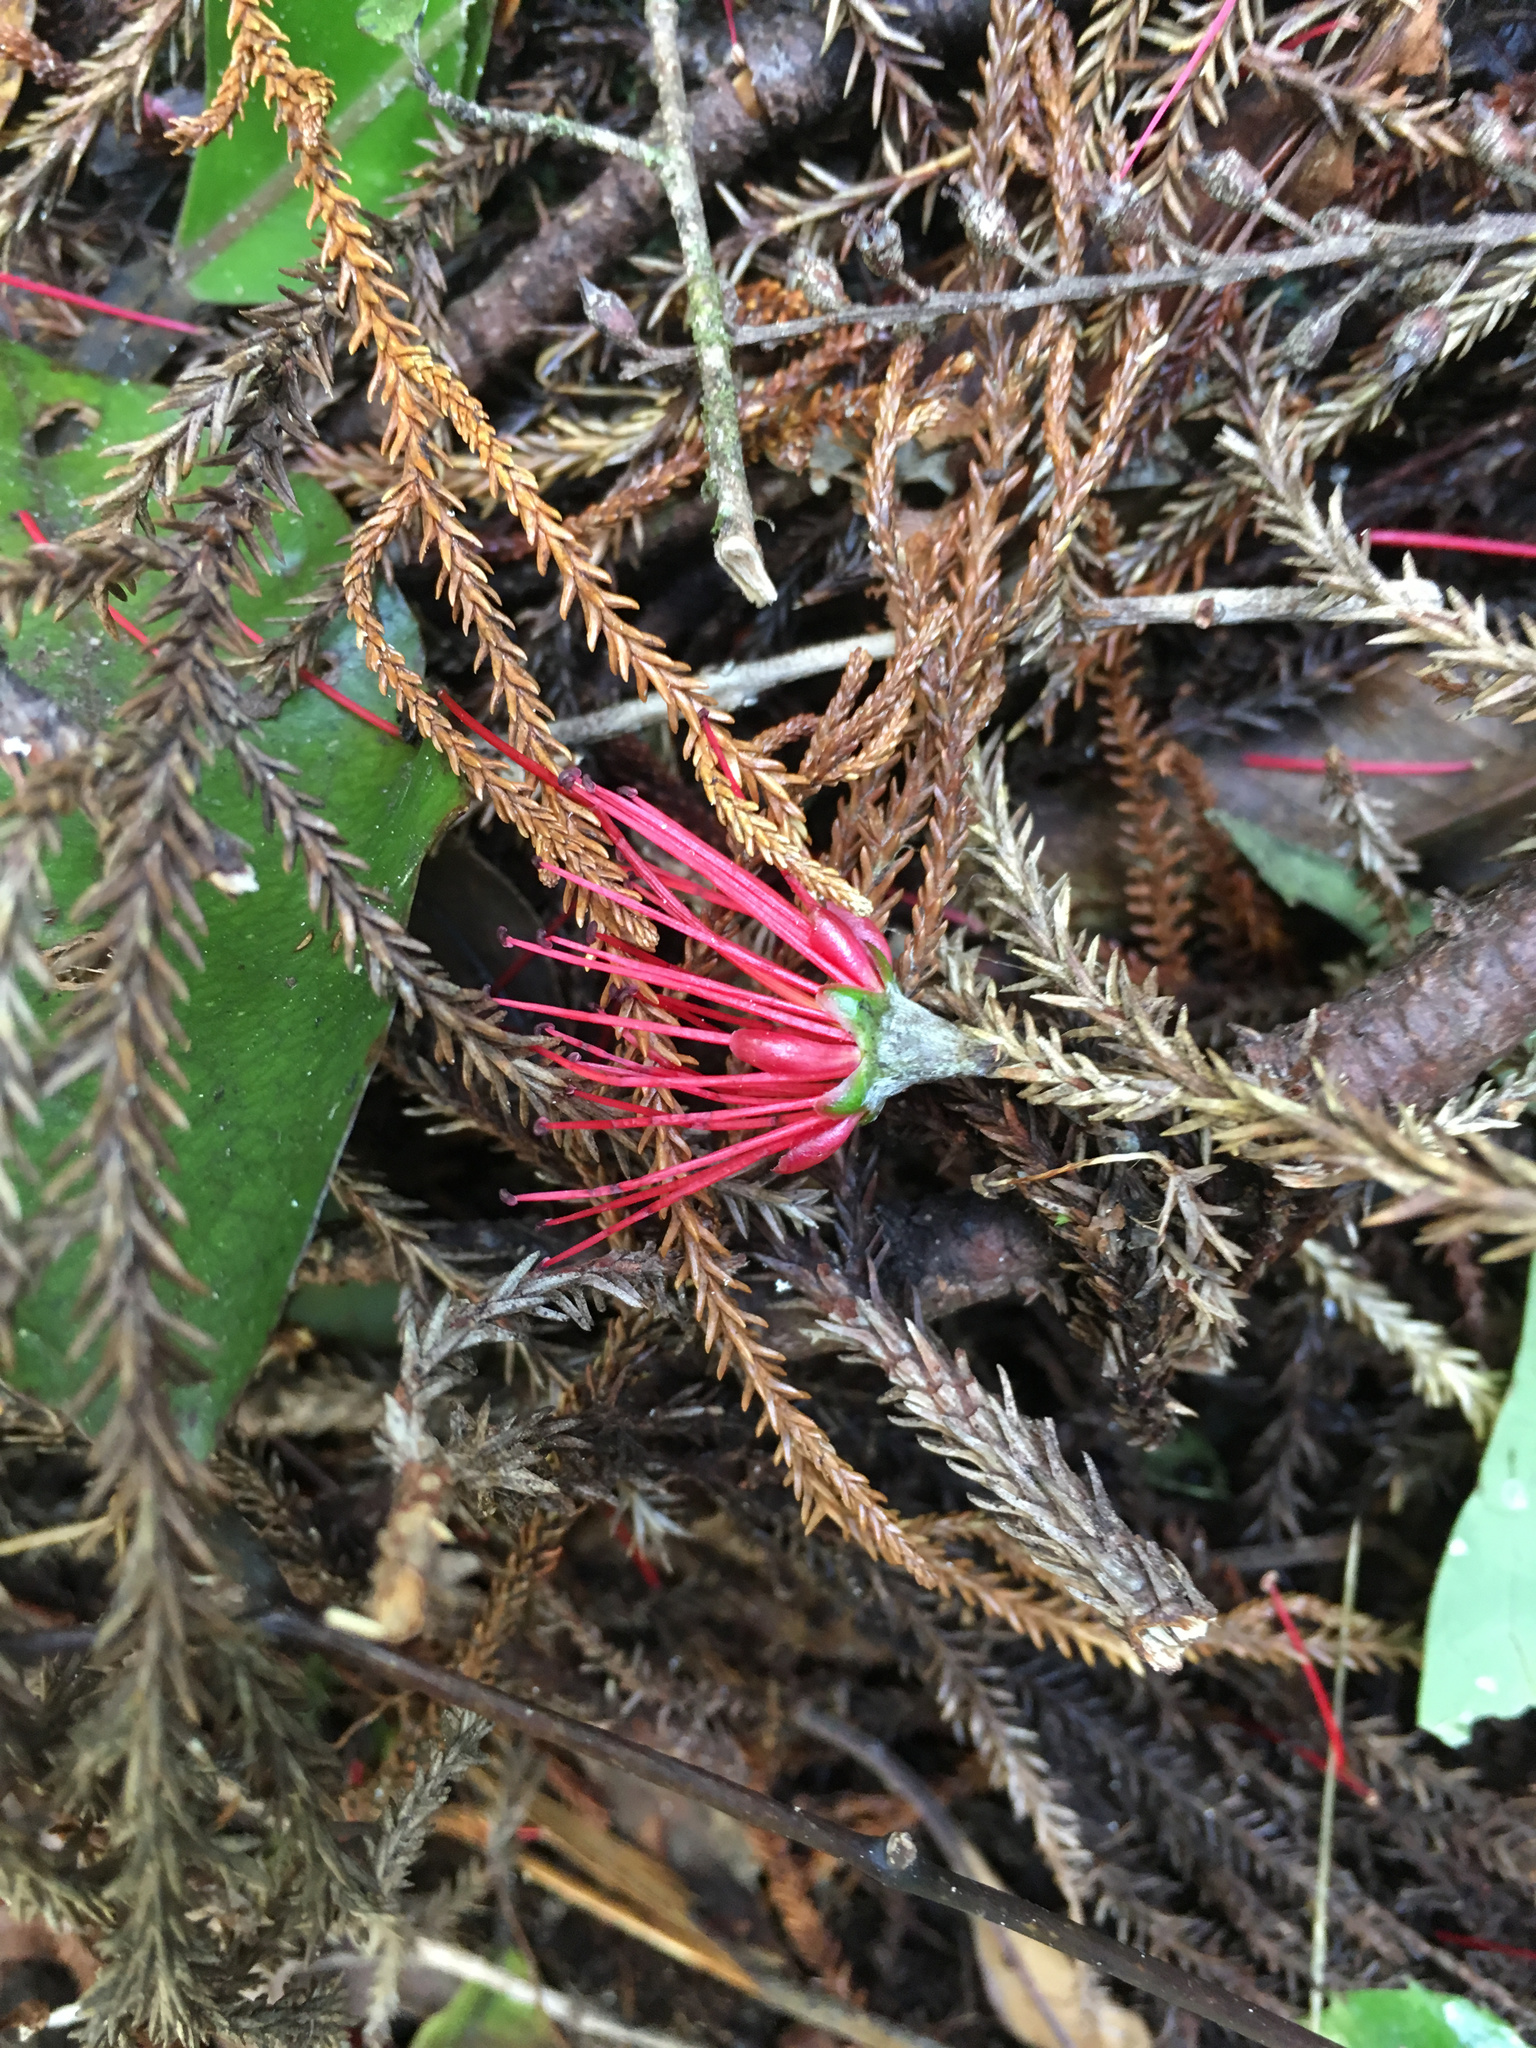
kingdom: Plantae
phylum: Tracheophyta
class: Magnoliopsida
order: Myrtales
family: Myrtaceae
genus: Metrosideros
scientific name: Metrosideros umbellata
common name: Southern rata
